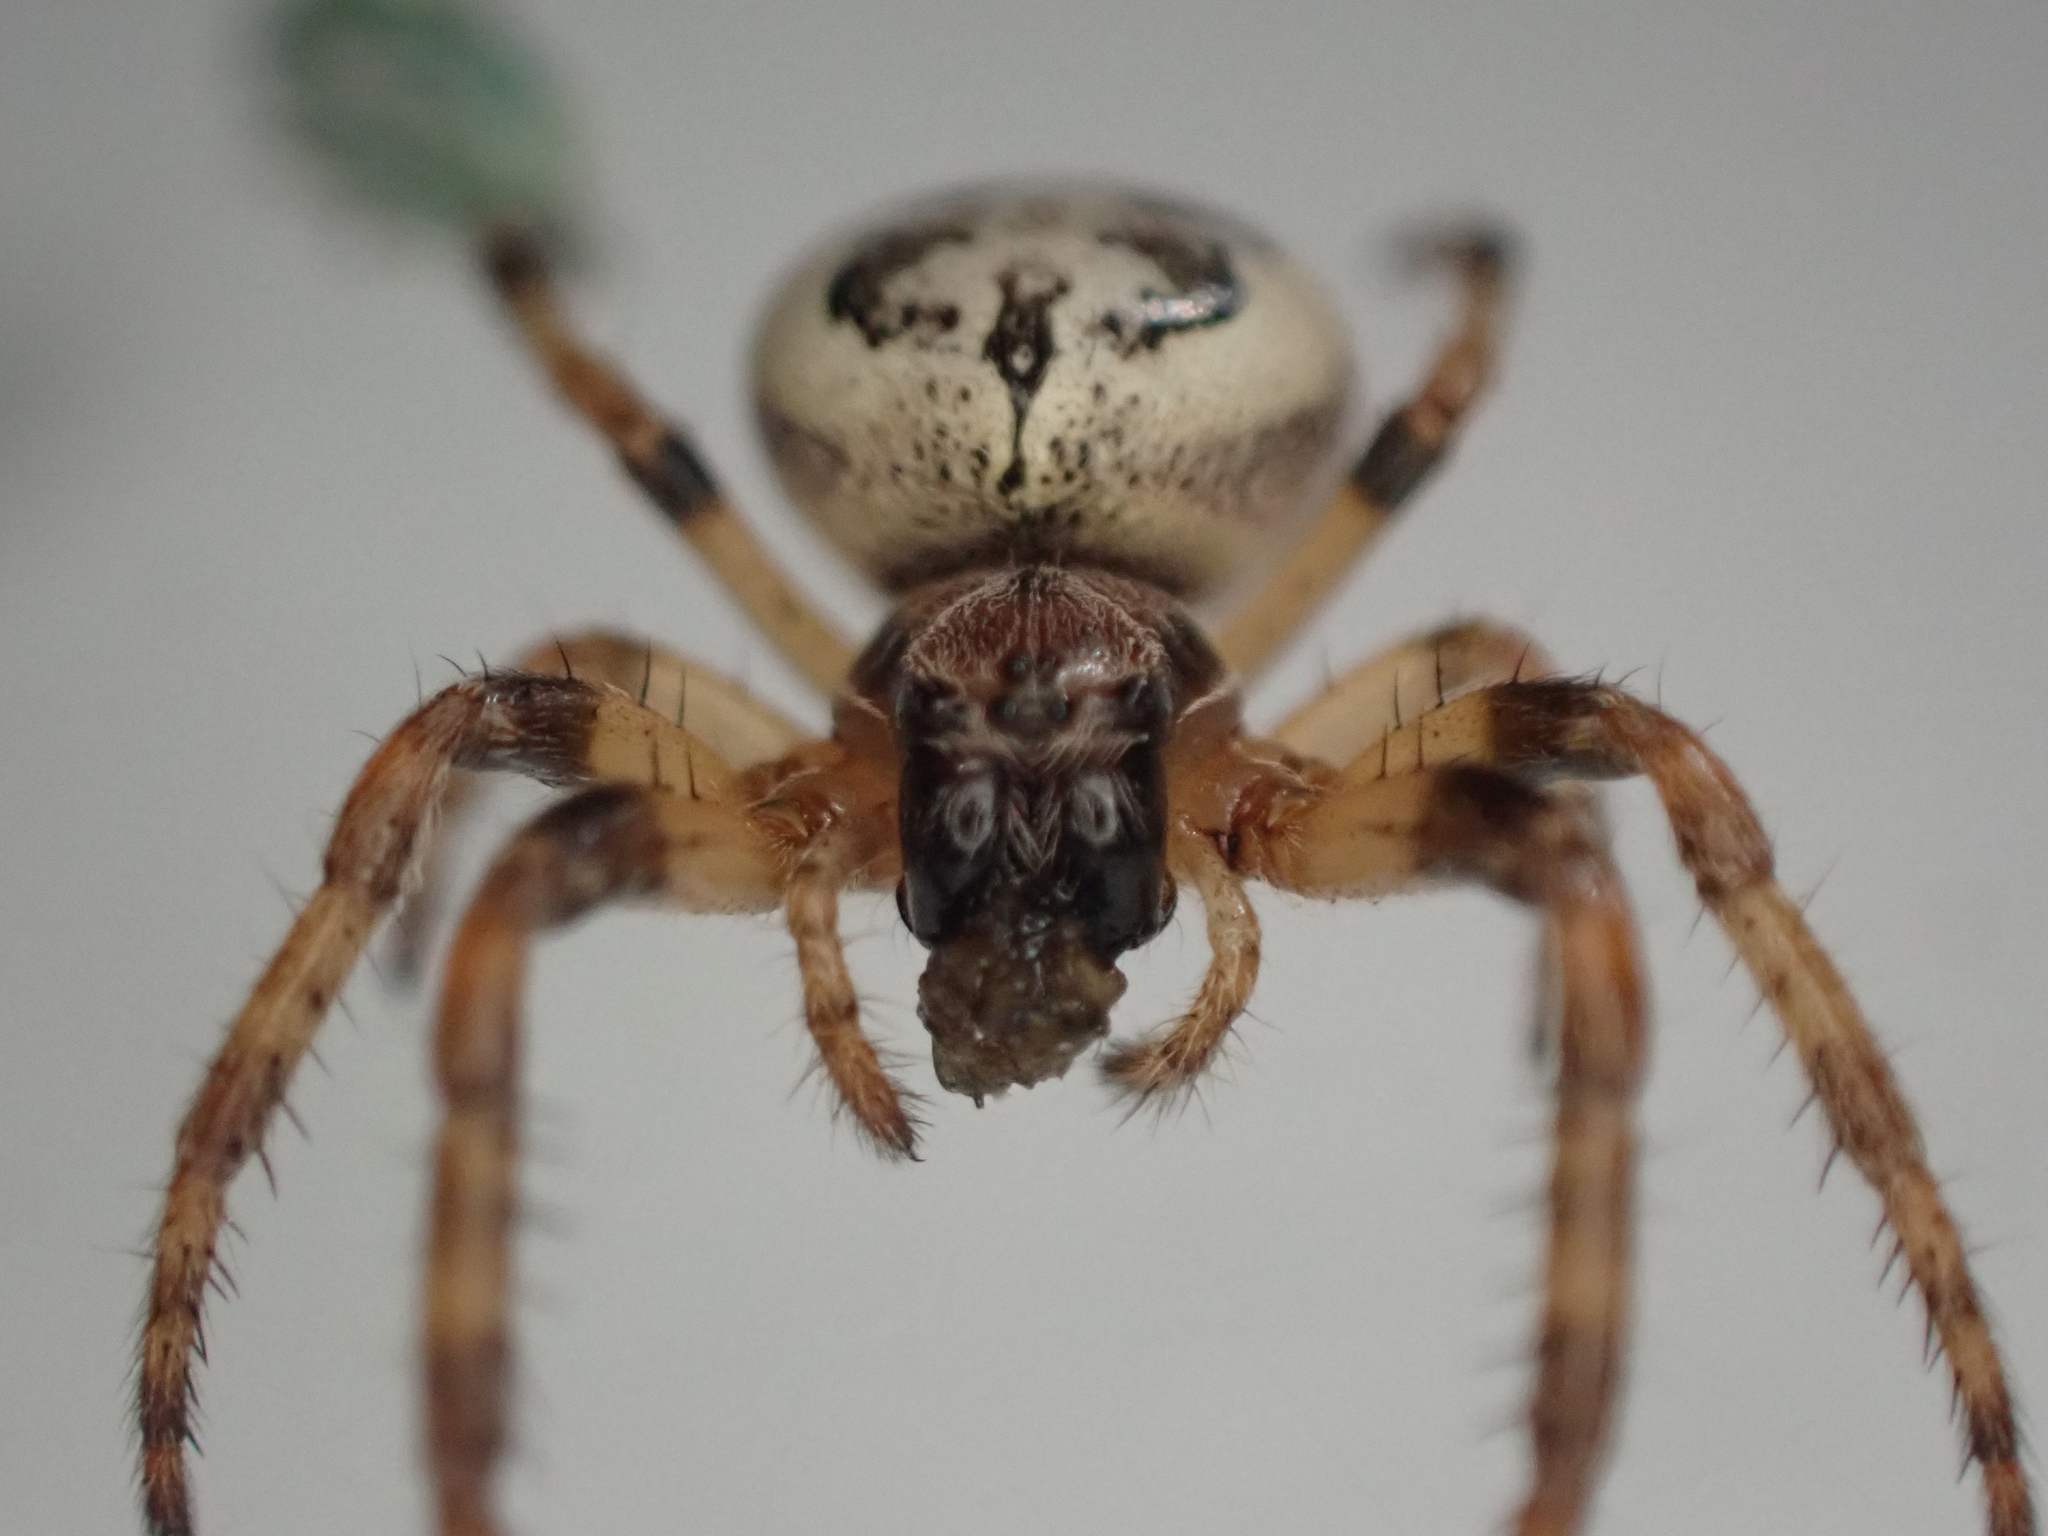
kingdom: Animalia
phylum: Arthropoda
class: Arachnida
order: Araneae
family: Araneidae
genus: Larinioides
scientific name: Larinioides cornutus
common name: Furrow orbweaver
